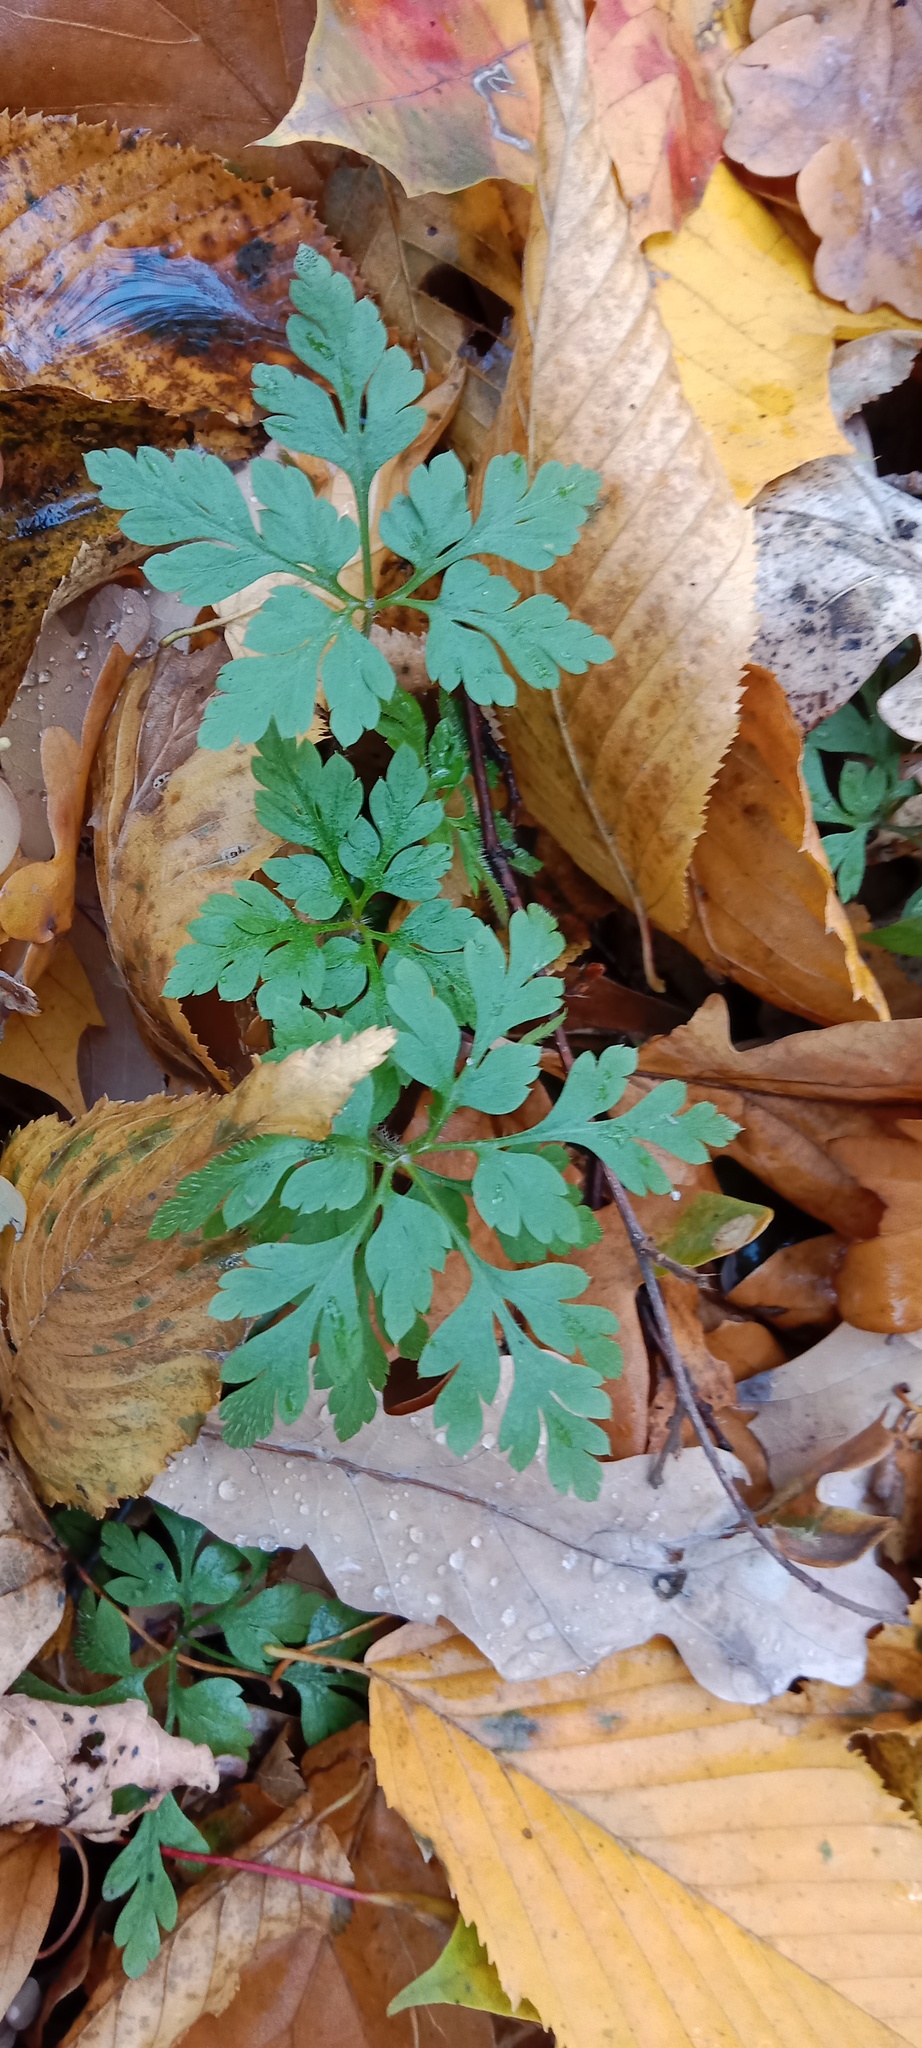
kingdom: Plantae
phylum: Tracheophyta
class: Magnoliopsida
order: Geraniales
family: Geraniaceae
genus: Geranium
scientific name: Geranium robertianum
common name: Herb-robert
